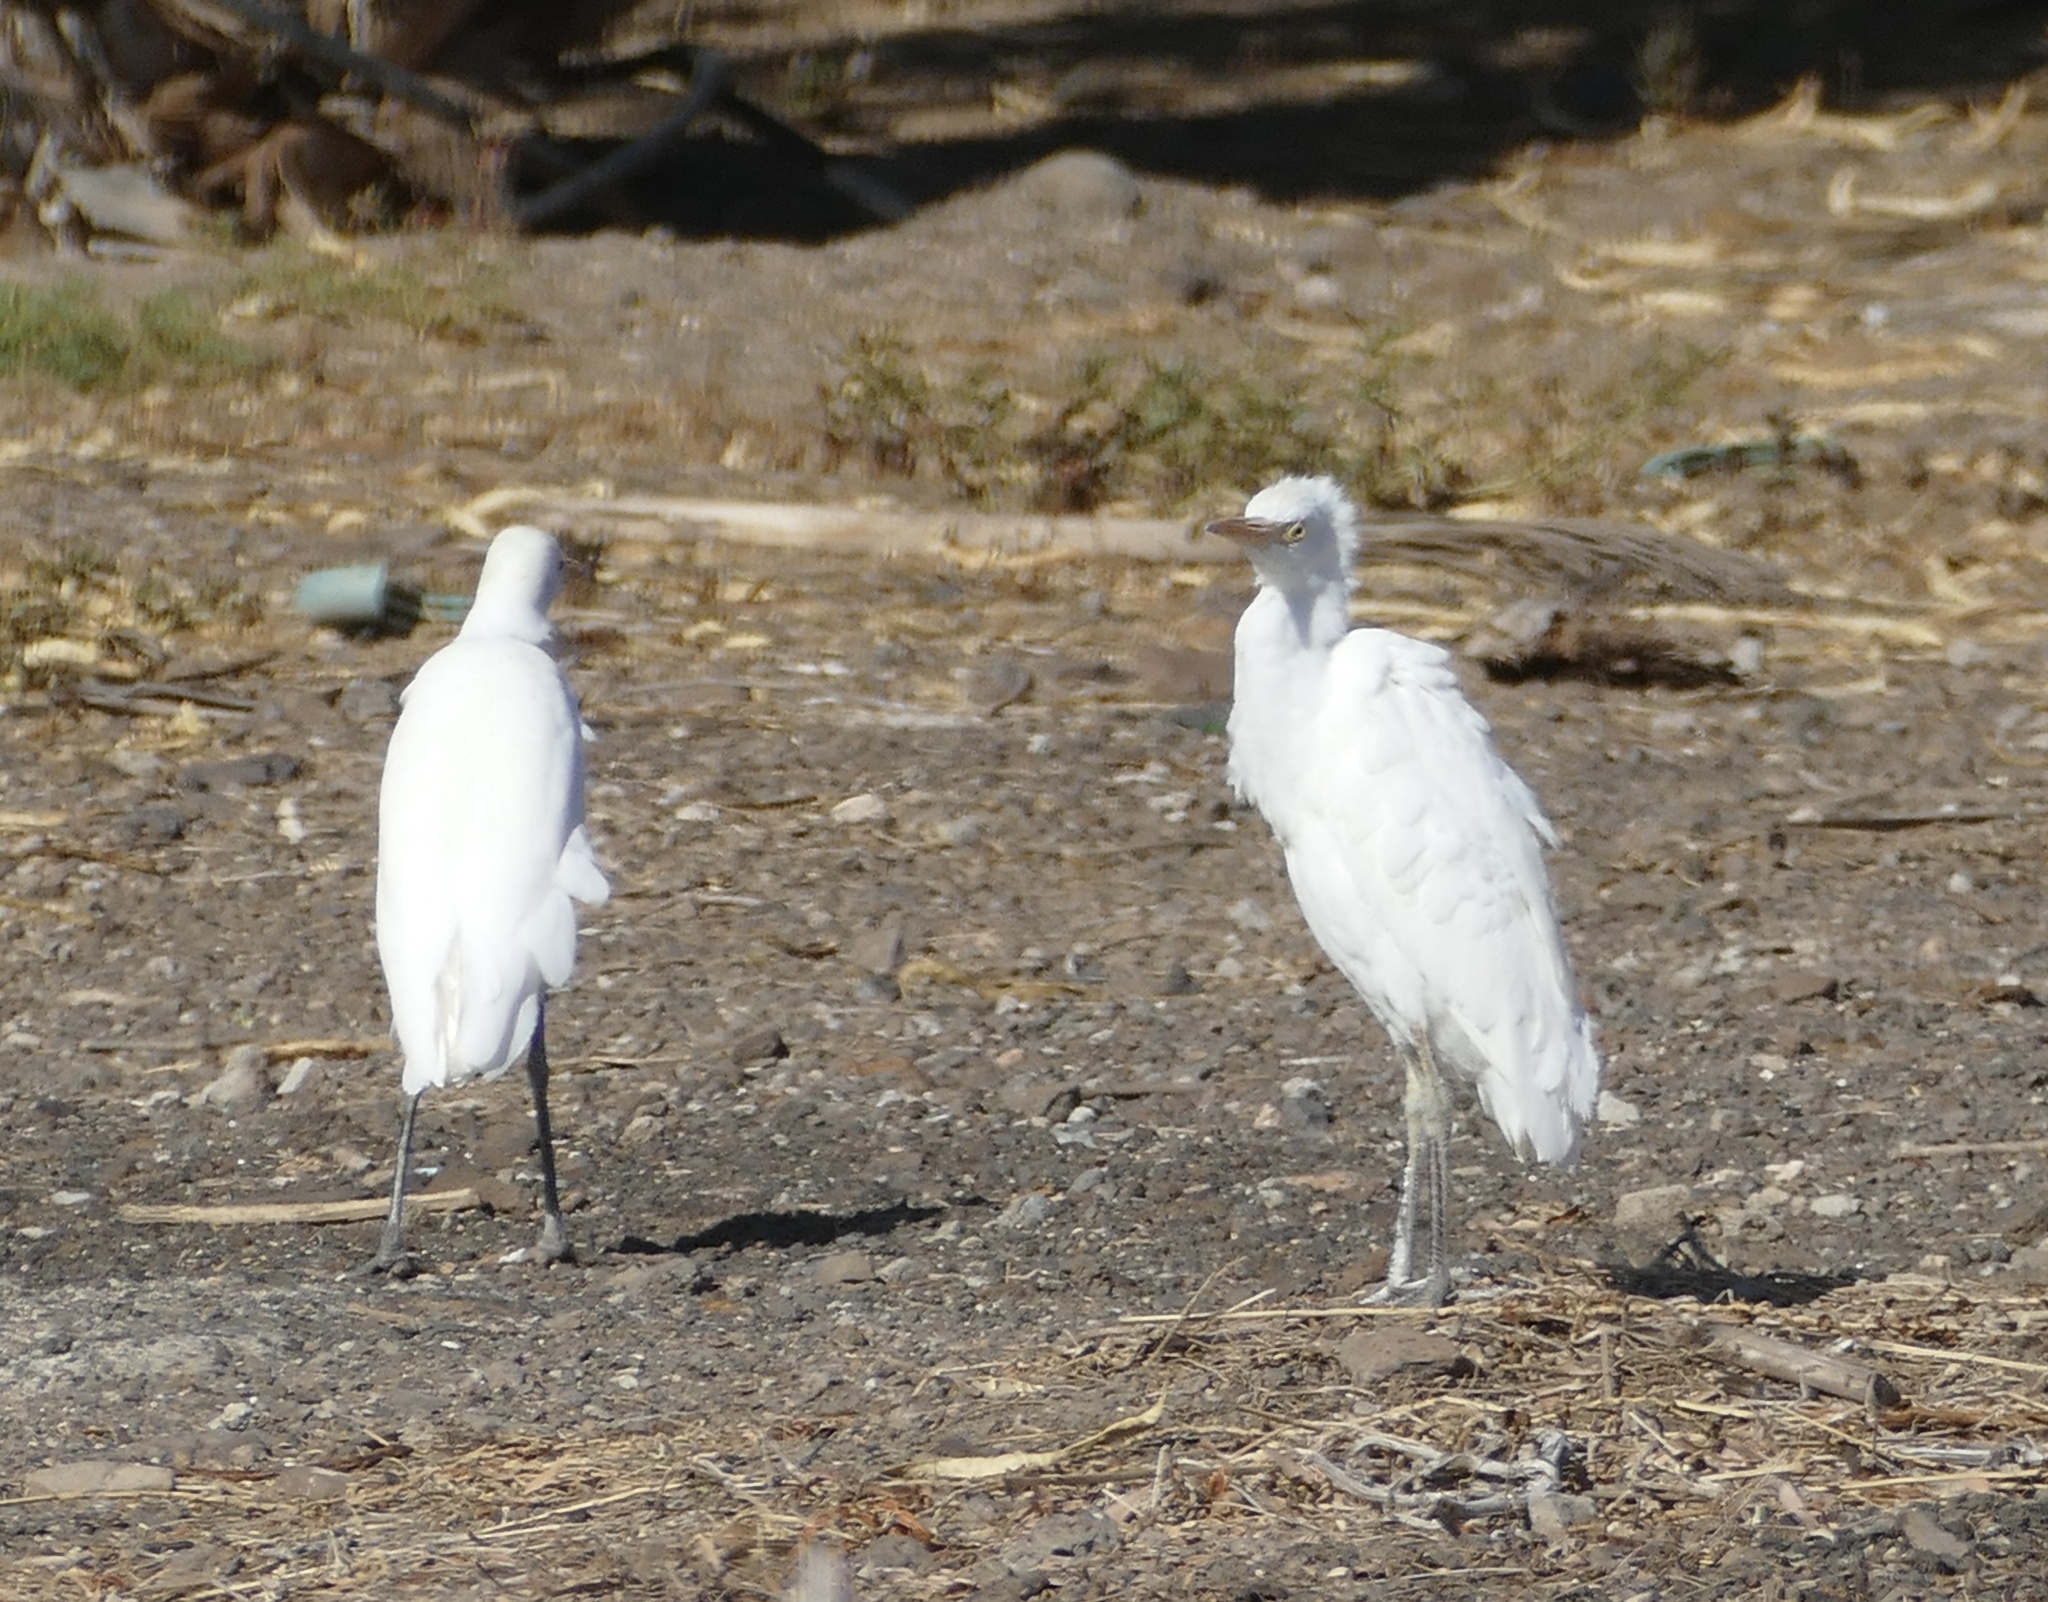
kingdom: Animalia
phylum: Chordata
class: Aves
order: Pelecaniformes
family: Ardeidae
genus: Bubulcus
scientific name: Bubulcus ibis
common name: Cattle egret
